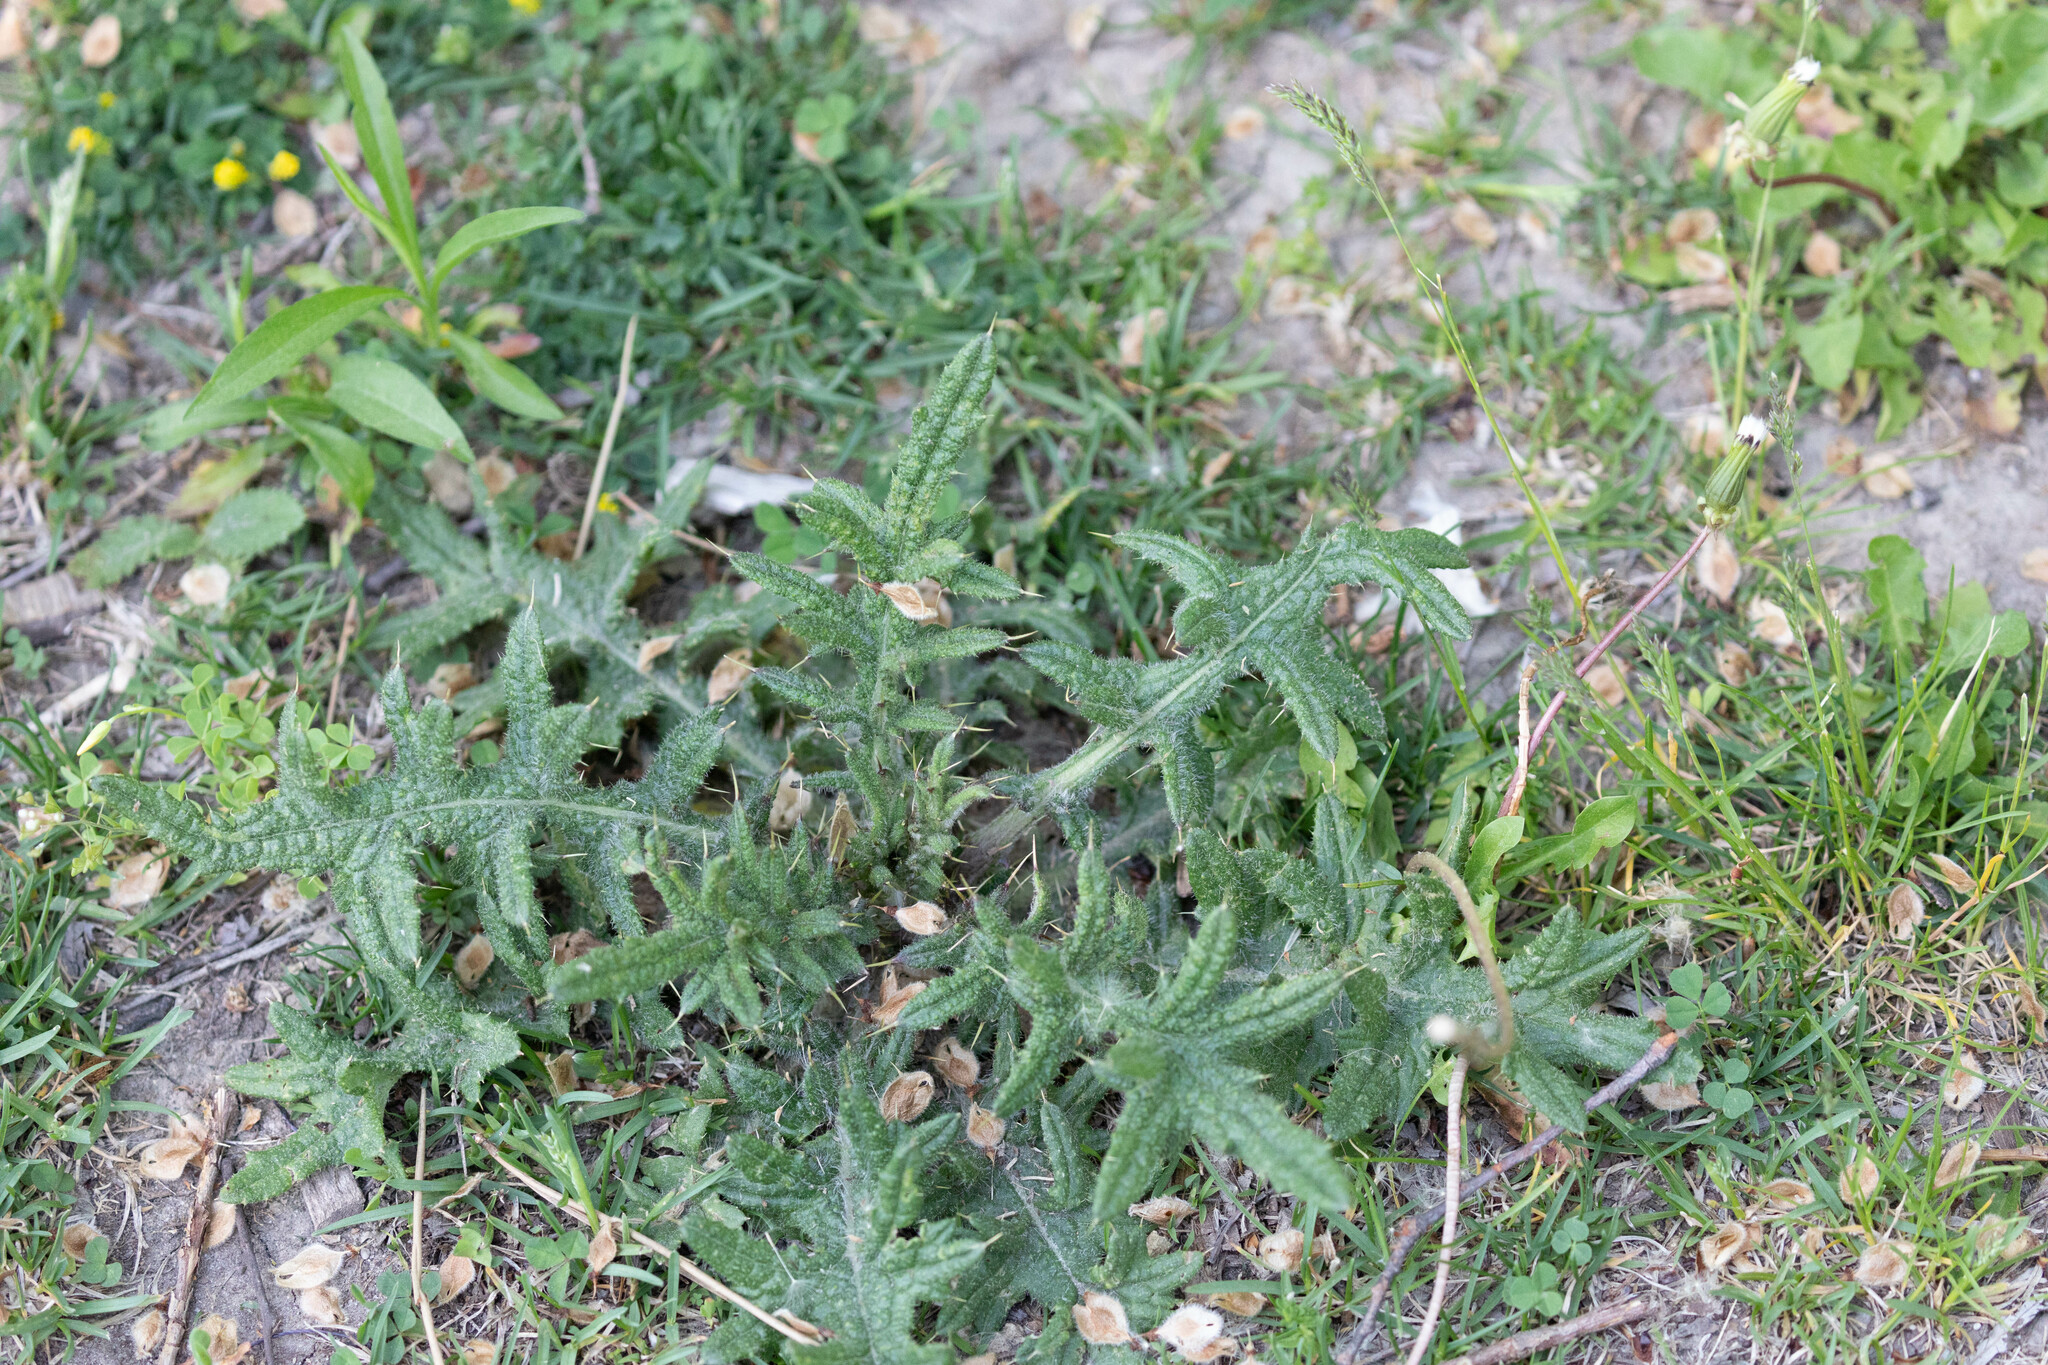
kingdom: Plantae
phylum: Tracheophyta
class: Magnoliopsida
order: Asterales
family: Asteraceae
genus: Cirsium
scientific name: Cirsium vulgare
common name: Bull thistle
